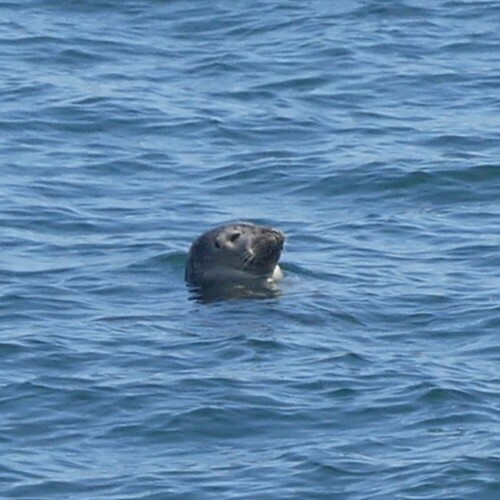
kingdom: Animalia
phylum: Chordata
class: Mammalia
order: Carnivora
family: Phocidae
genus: Phoca
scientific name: Phoca vitulina
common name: Harbor seal
